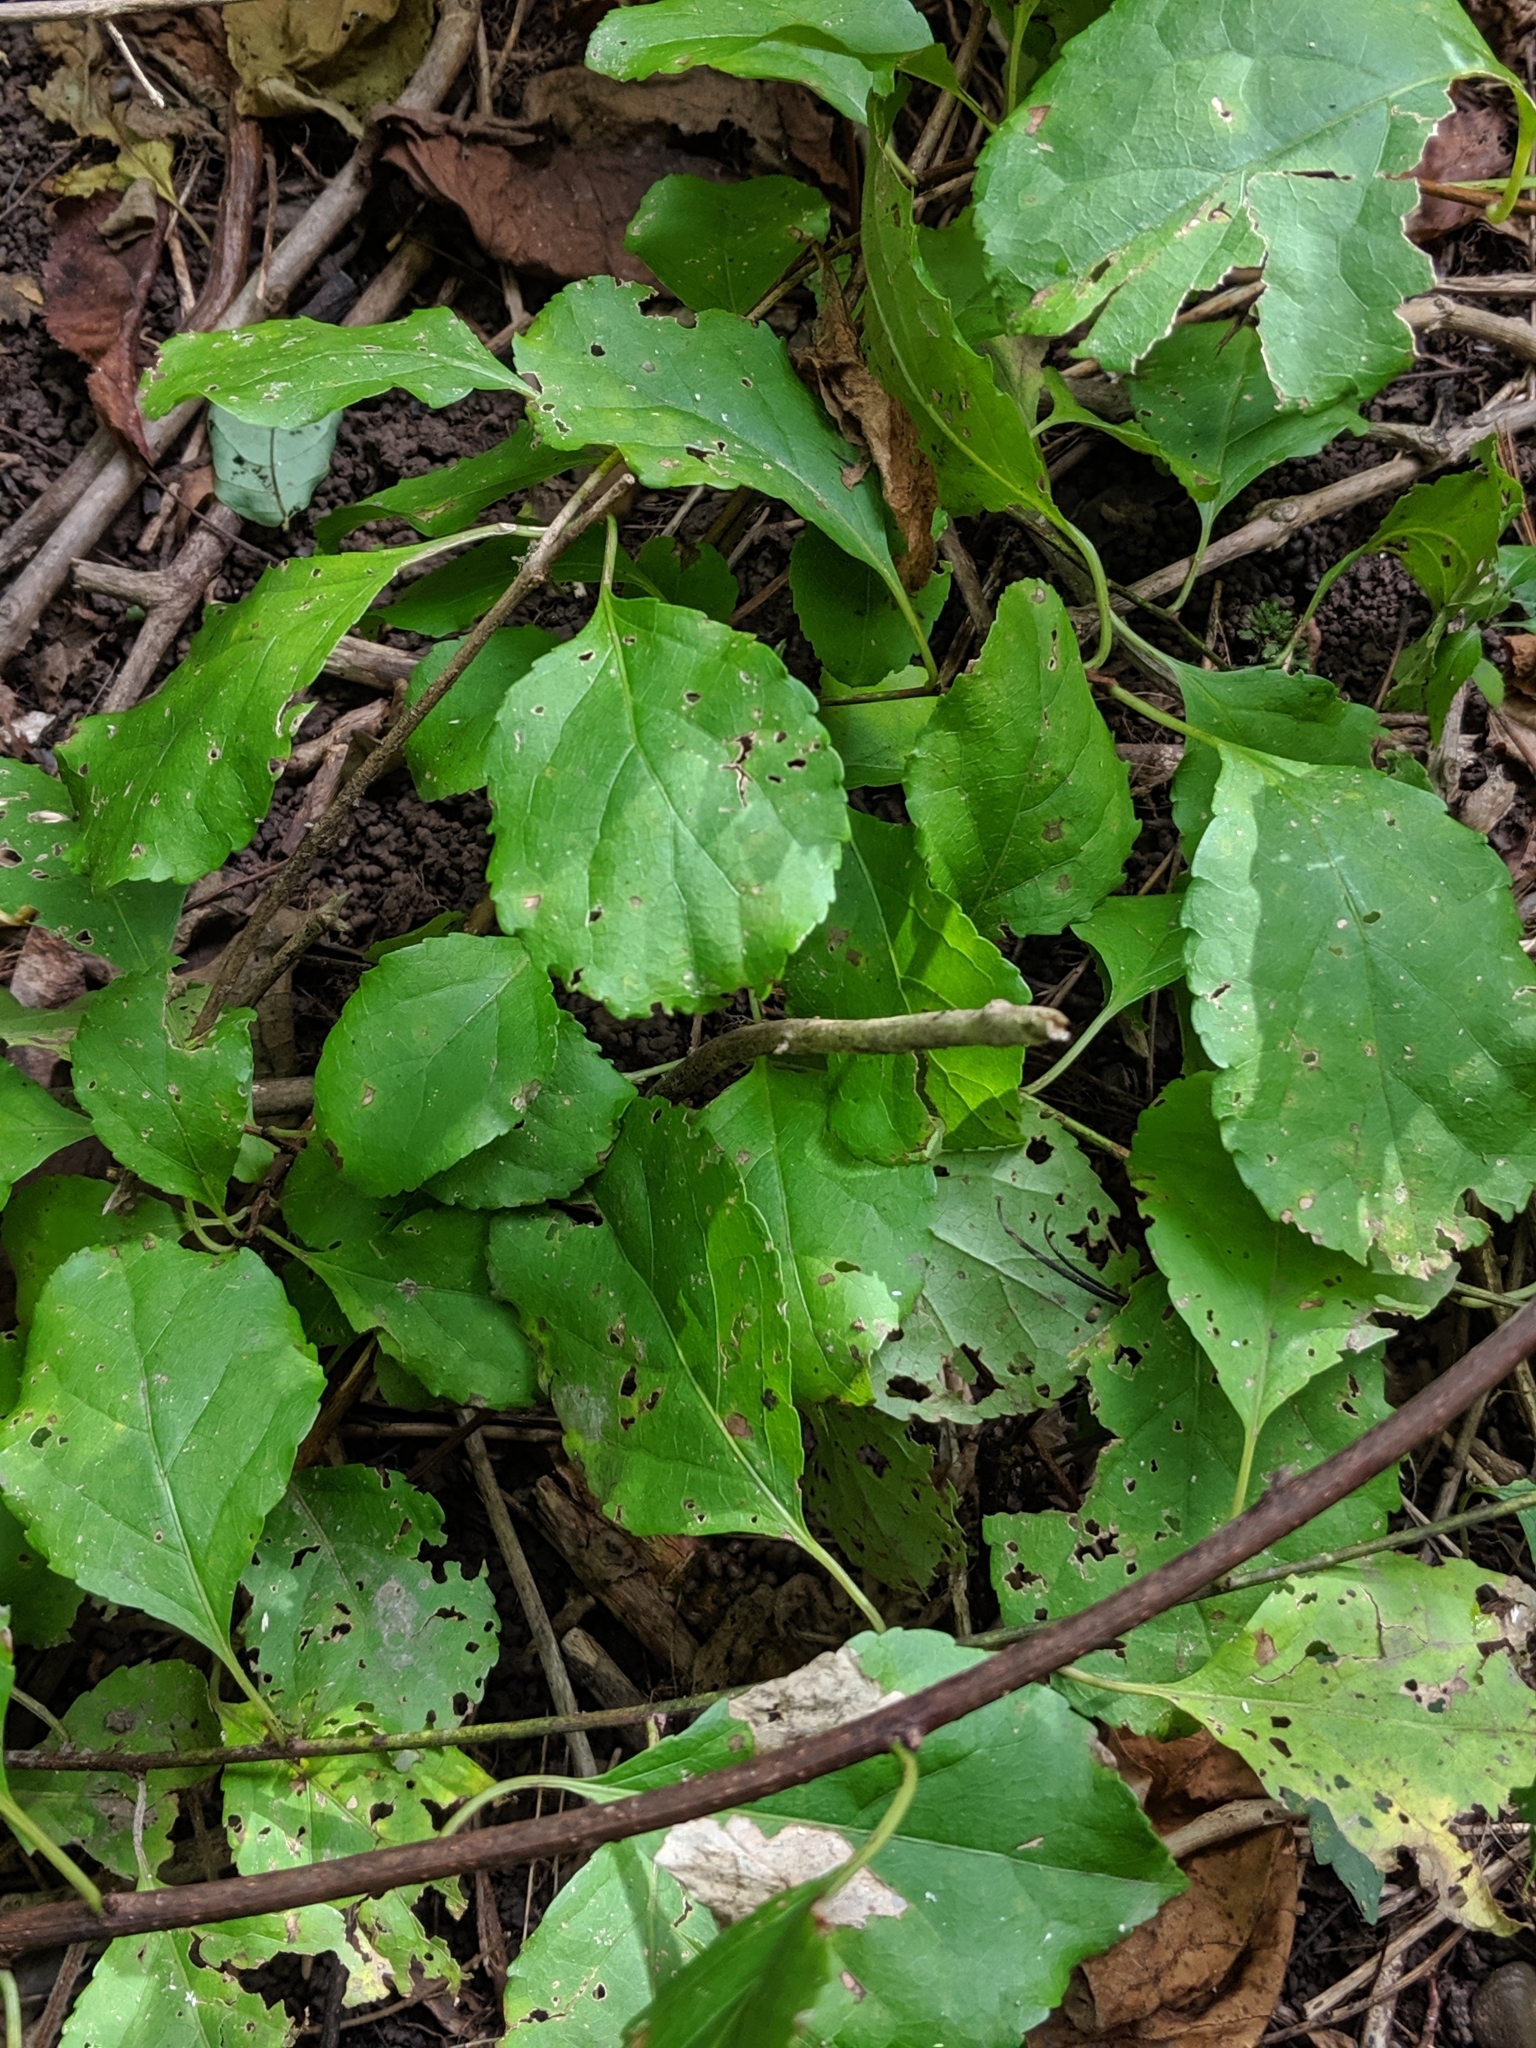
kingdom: Plantae
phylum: Tracheophyta
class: Magnoliopsida
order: Celastrales
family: Celastraceae
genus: Celastrus
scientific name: Celastrus orbiculatus
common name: Oriental bittersweet
